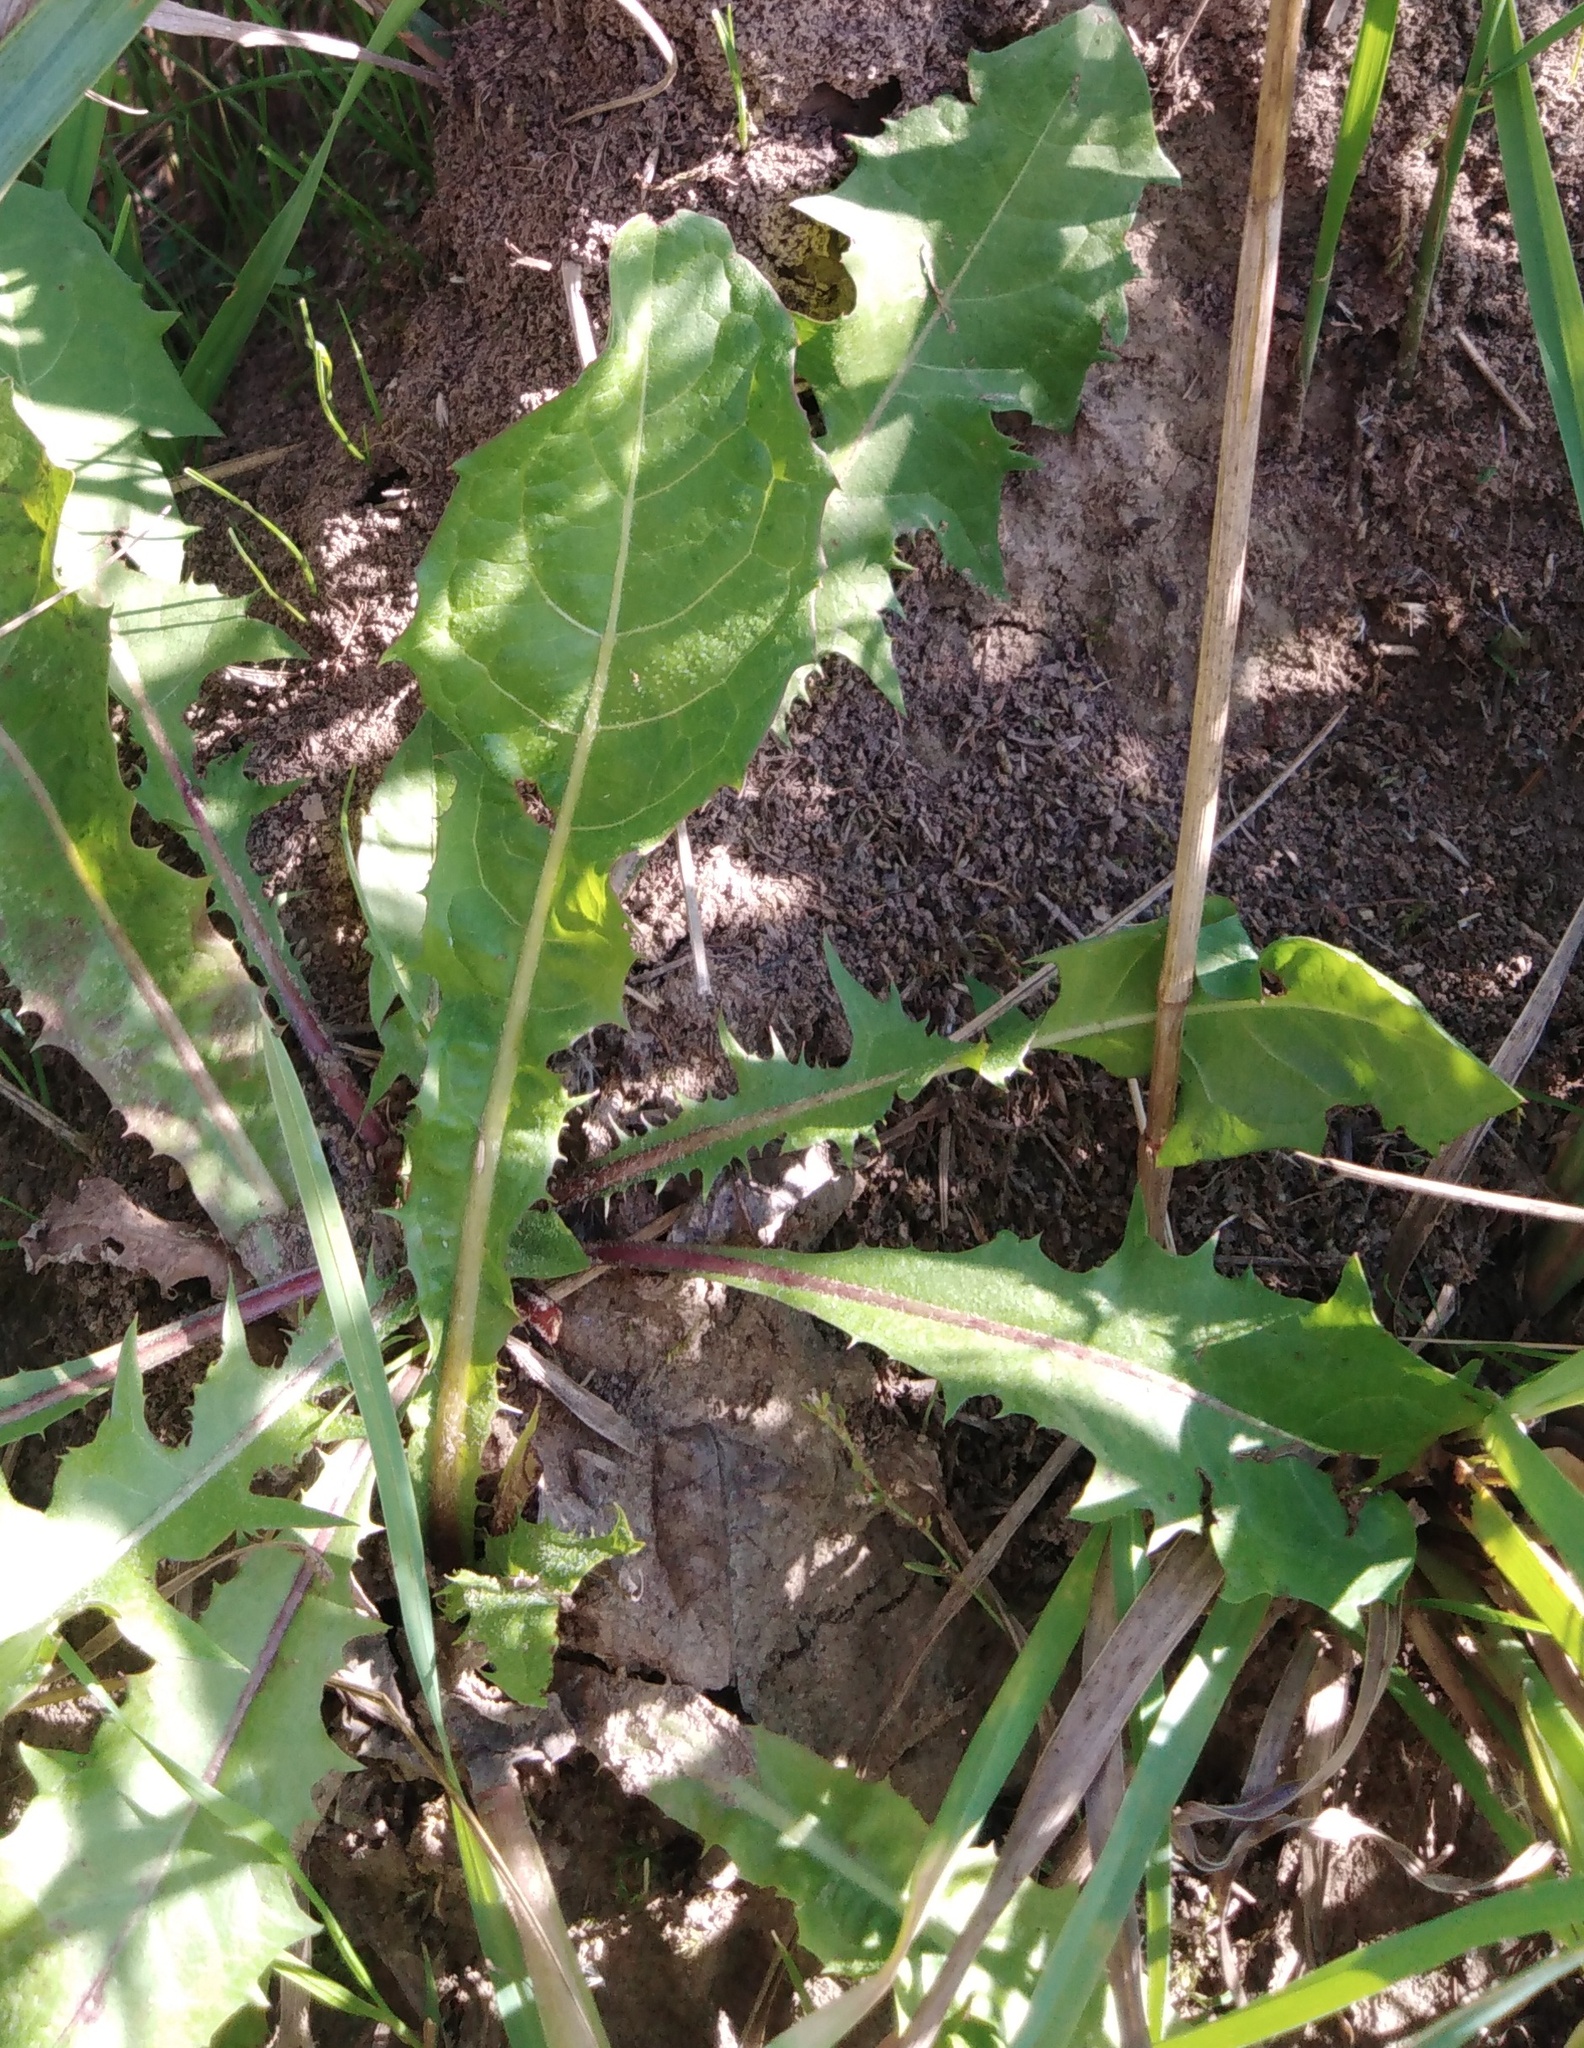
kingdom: Plantae
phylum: Tracheophyta
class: Magnoliopsida
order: Asterales
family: Asteraceae
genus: Taraxacum
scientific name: Taraxacum officinale
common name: Common dandelion
